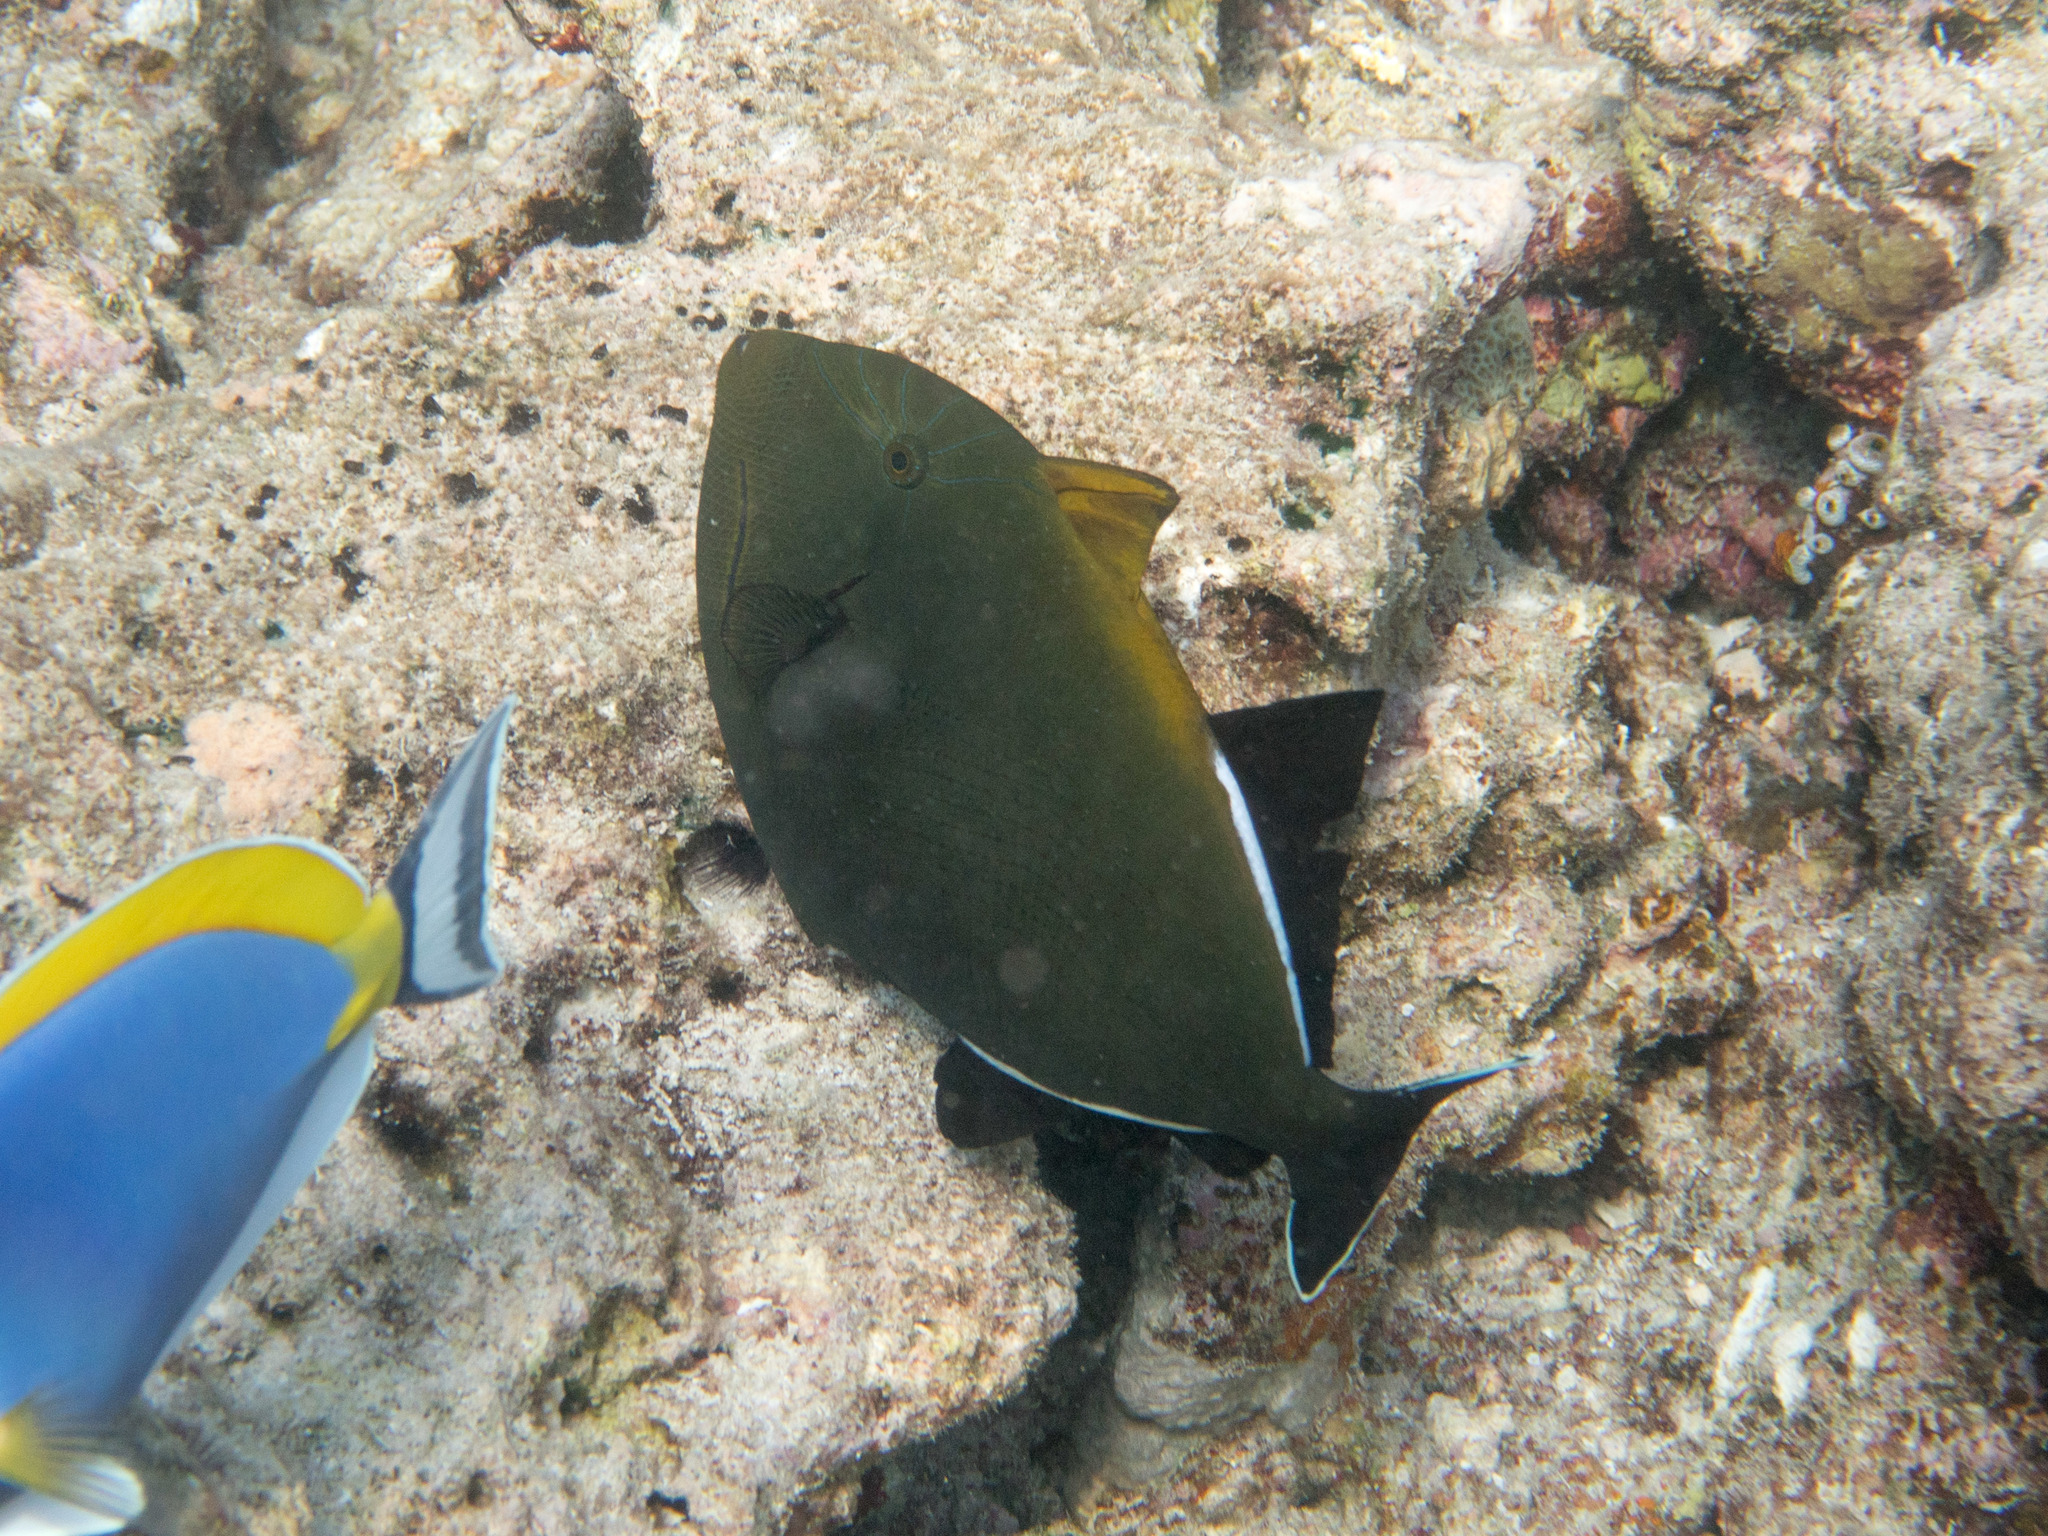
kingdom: Animalia
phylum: Chordata
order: Tetraodontiformes
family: Balistidae
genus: Melichthys
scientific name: Melichthys indicus
